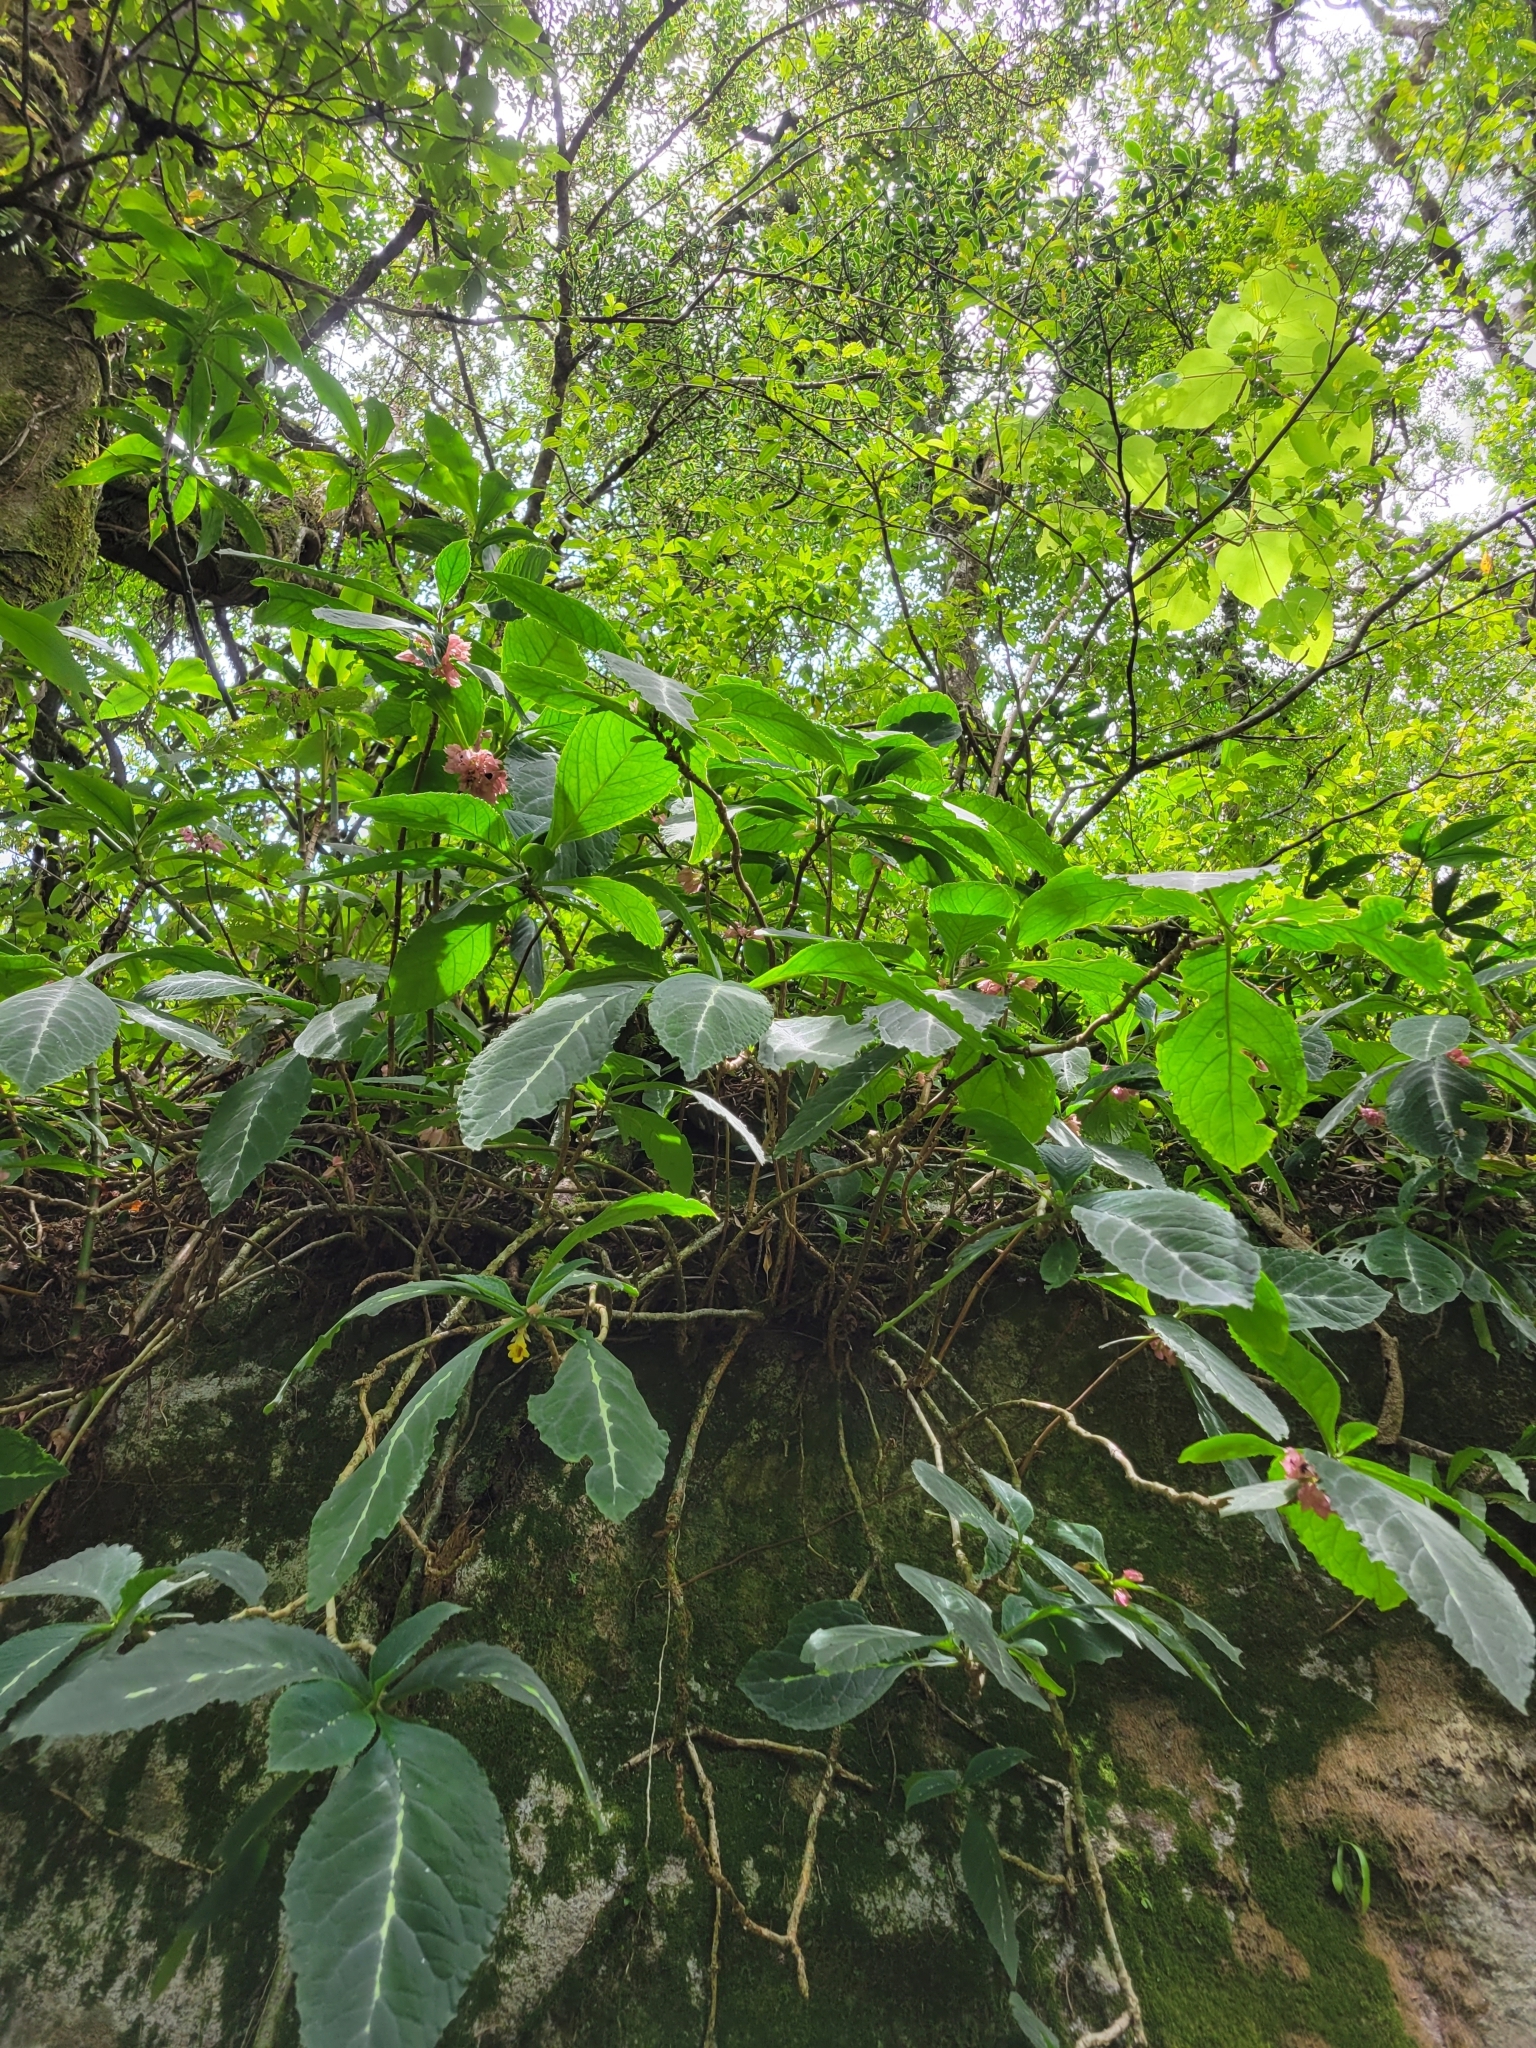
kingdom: Plantae
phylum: Tracheophyta
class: Magnoliopsida
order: Lamiales
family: Gesneriaceae
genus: Drymonia
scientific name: Drymonia parviflora
